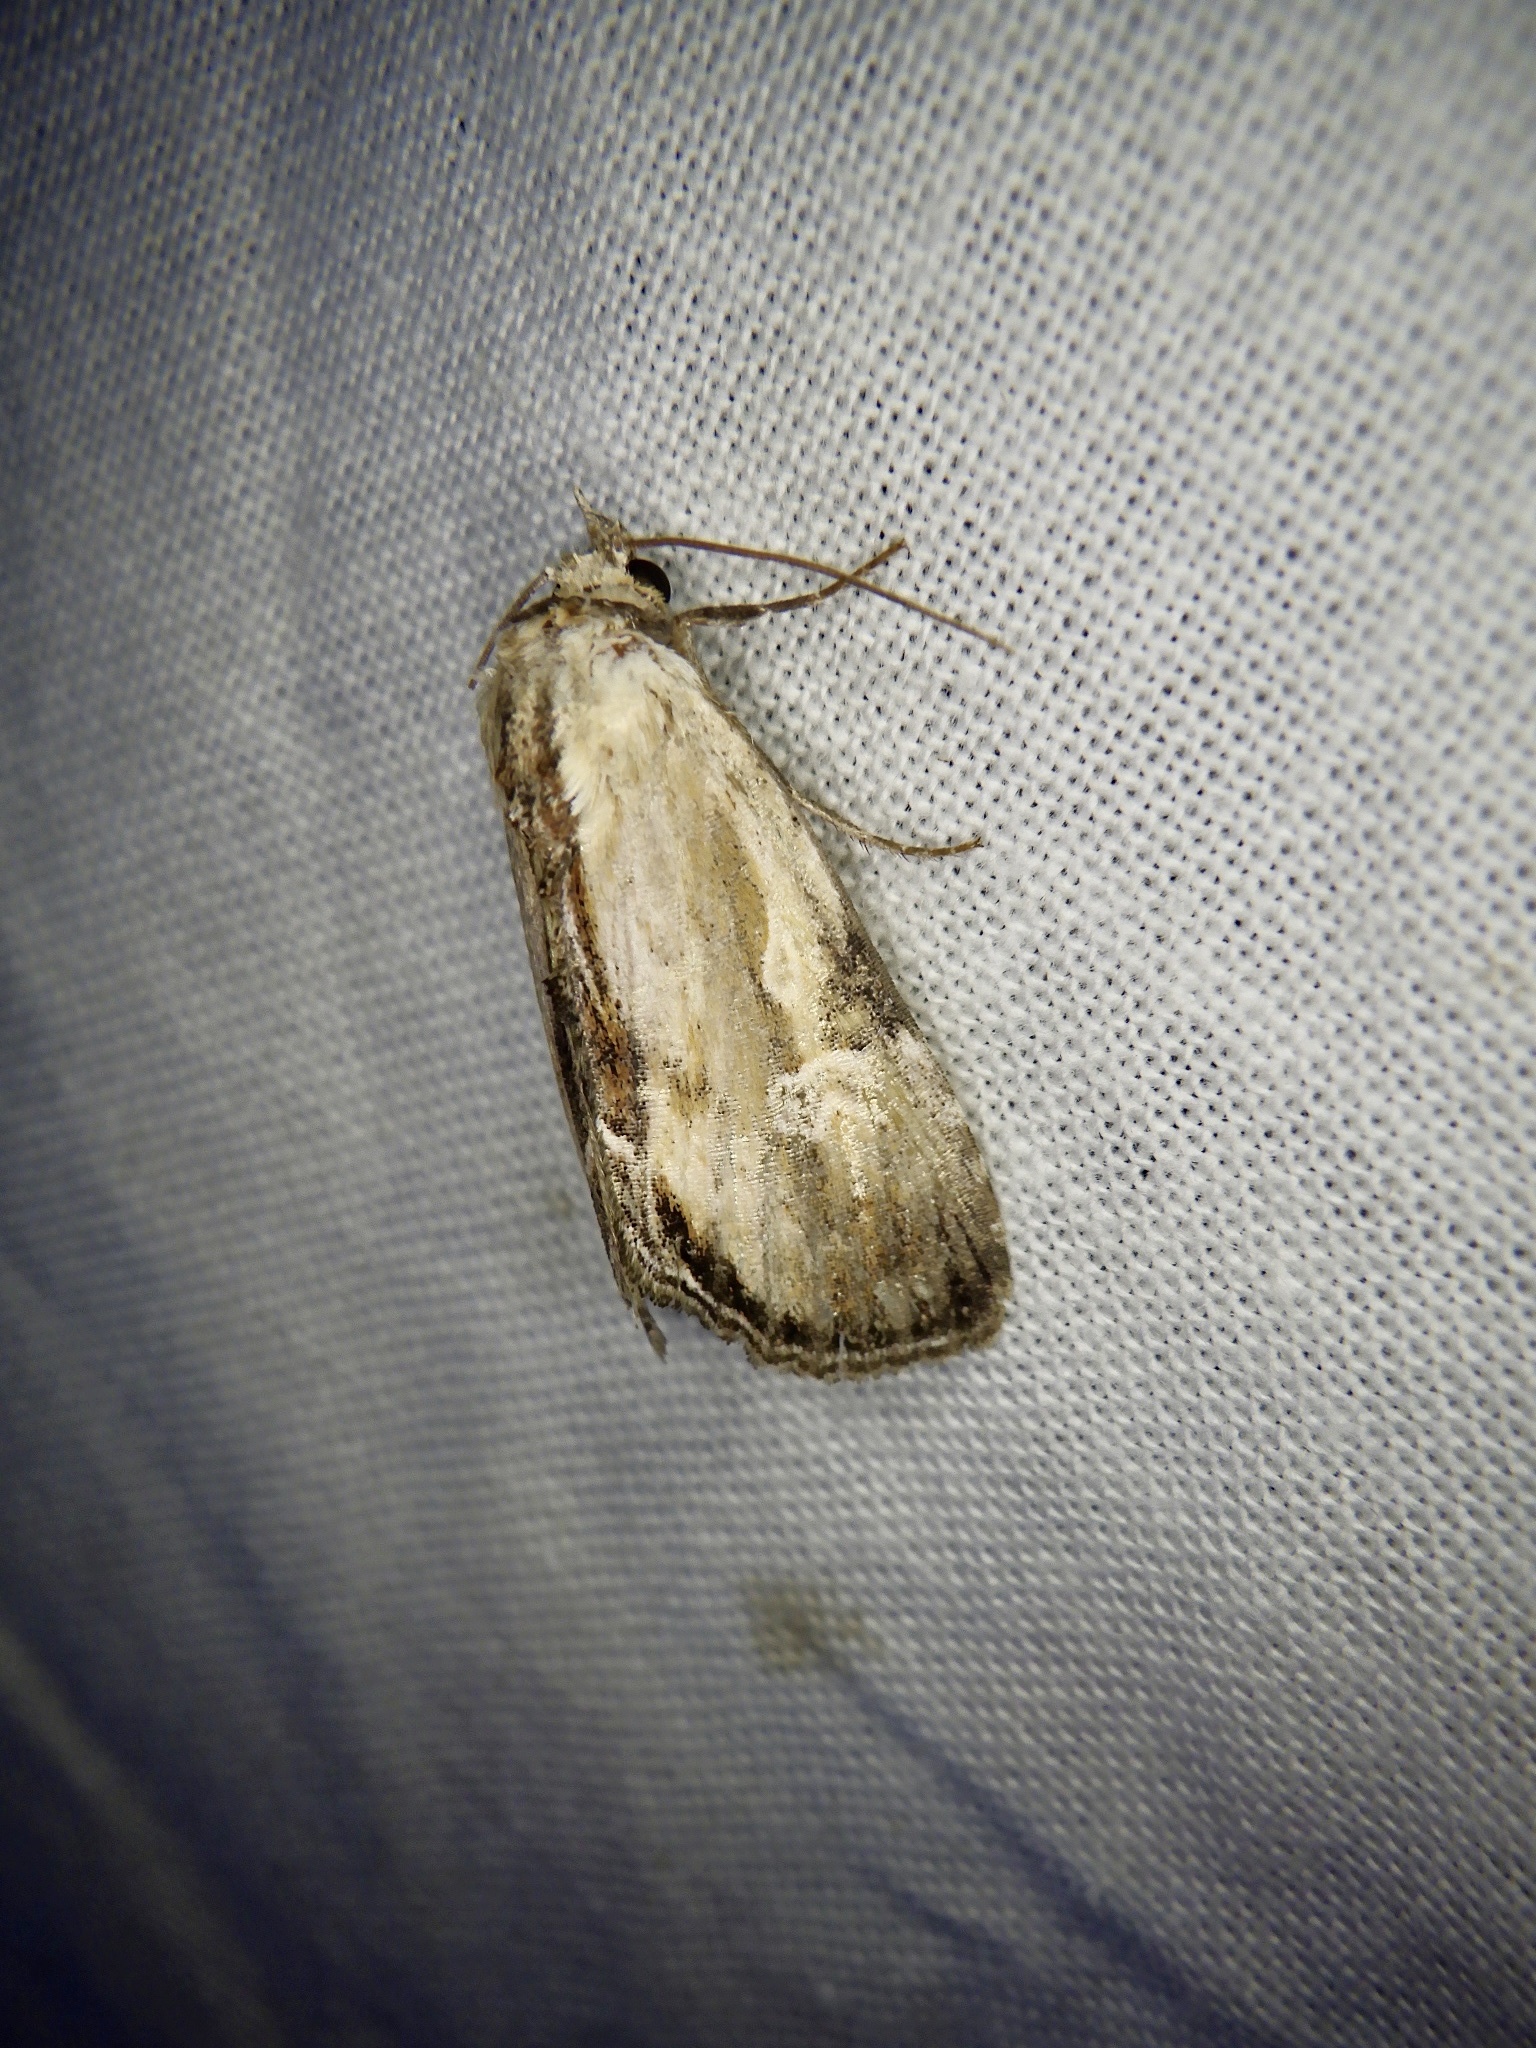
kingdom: Animalia
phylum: Arthropoda
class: Insecta
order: Lepidoptera
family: Noctuidae
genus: Antha
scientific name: Antha grata
